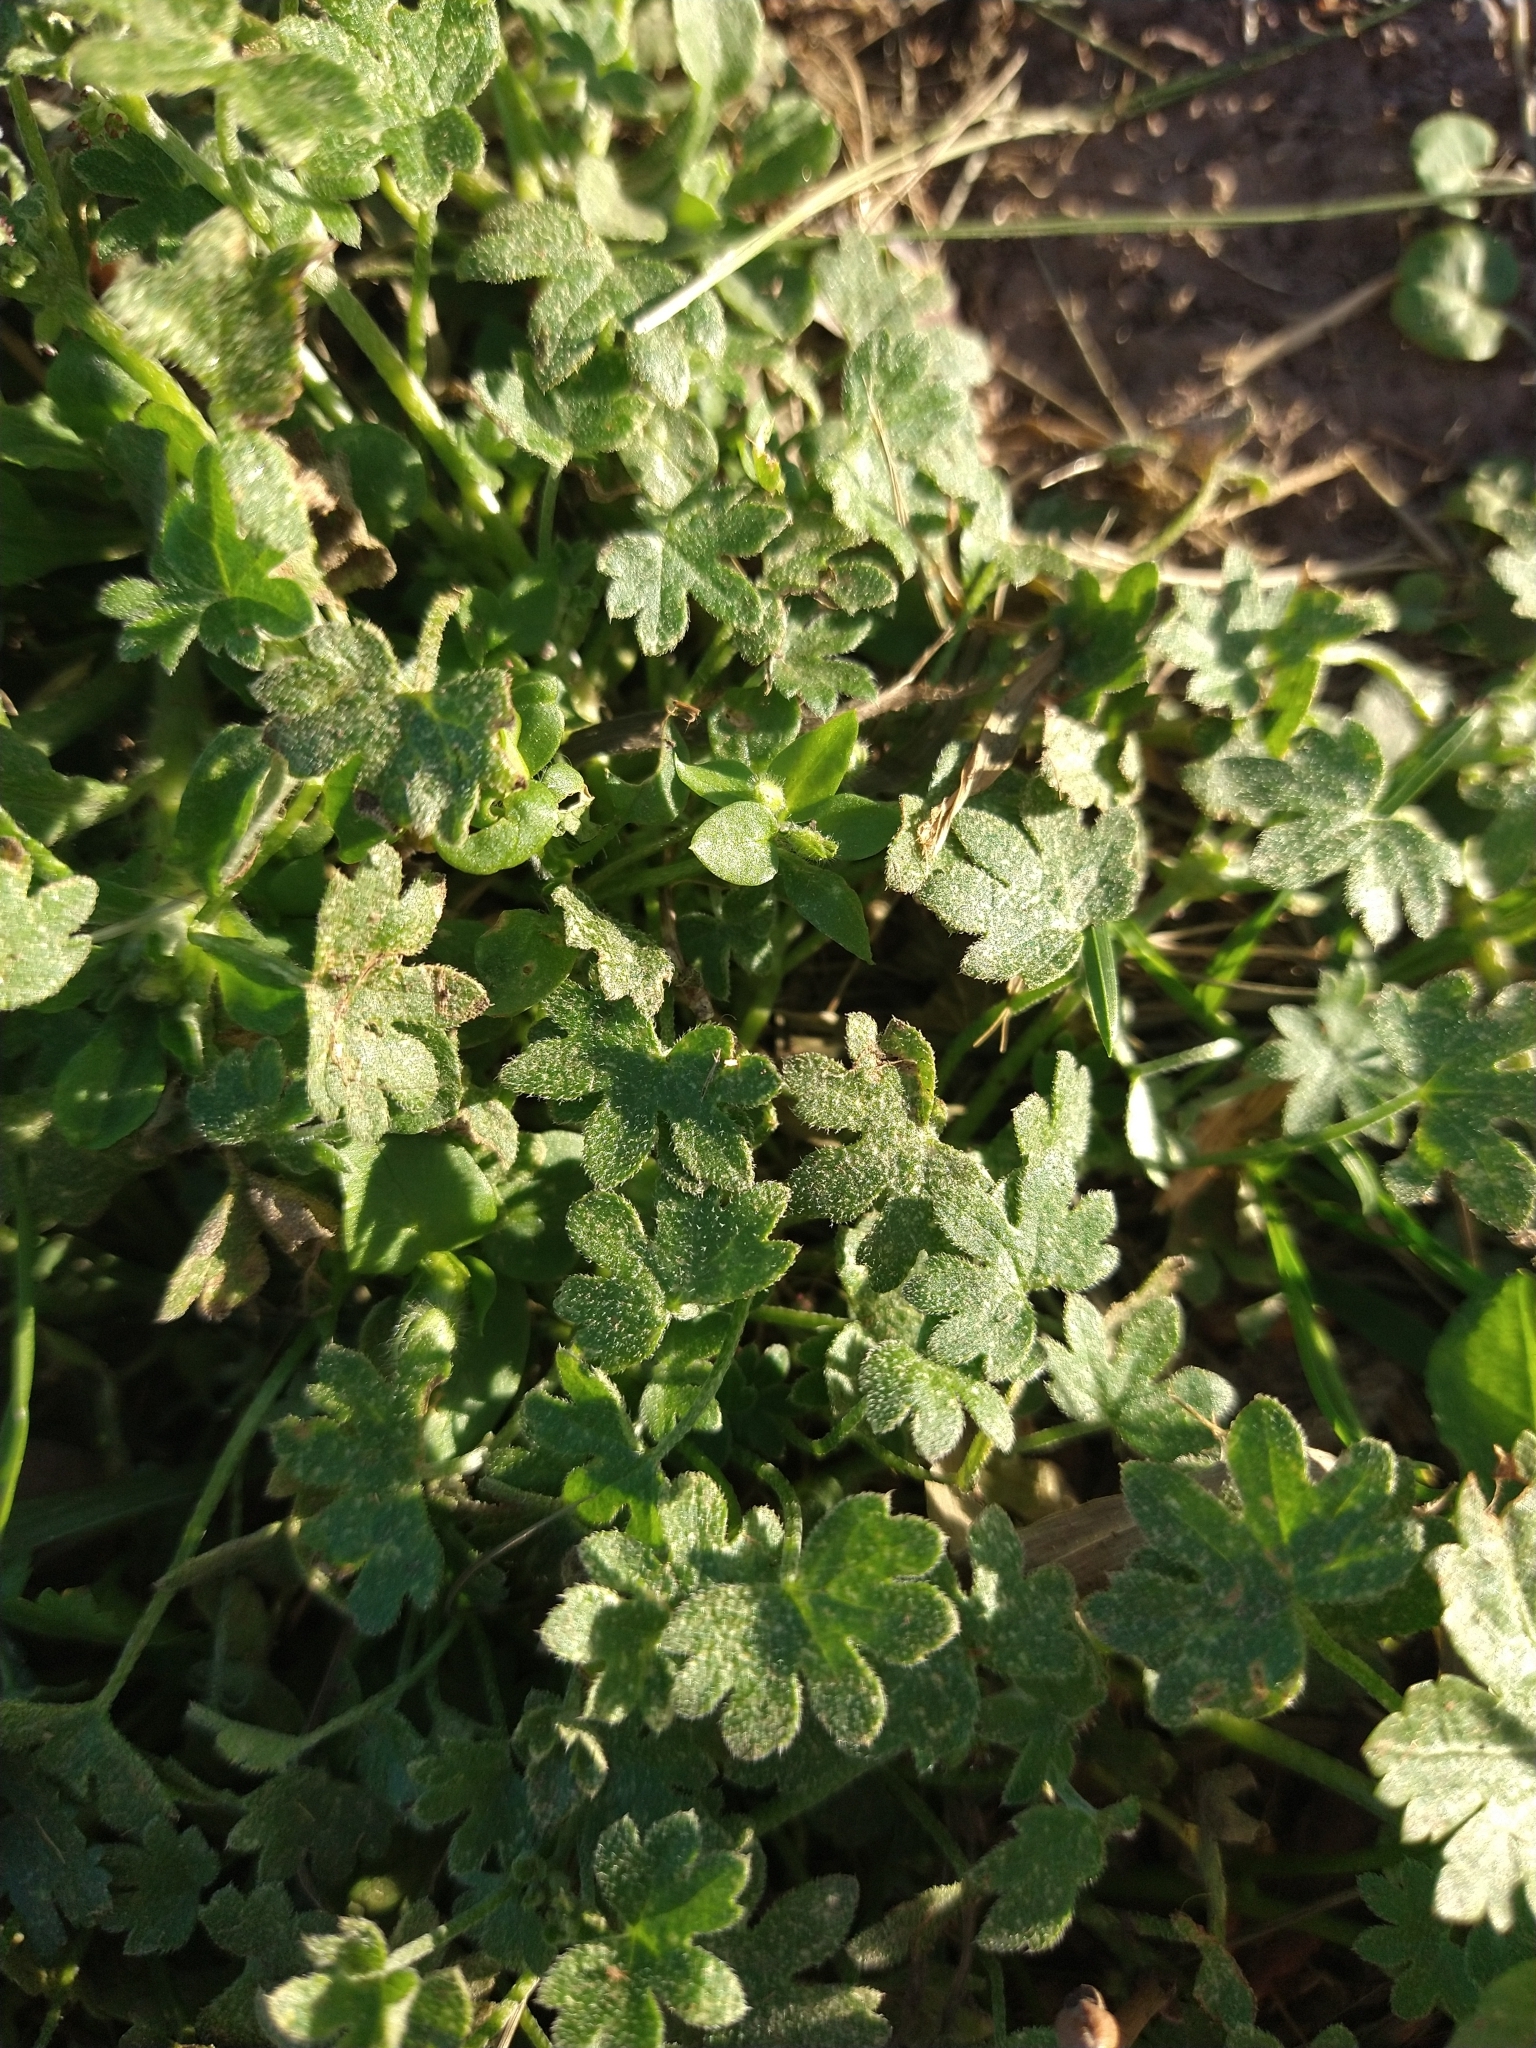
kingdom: Plantae
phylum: Tracheophyta
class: Magnoliopsida
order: Apiales
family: Apiaceae
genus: Bowlesia
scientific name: Bowlesia incana
